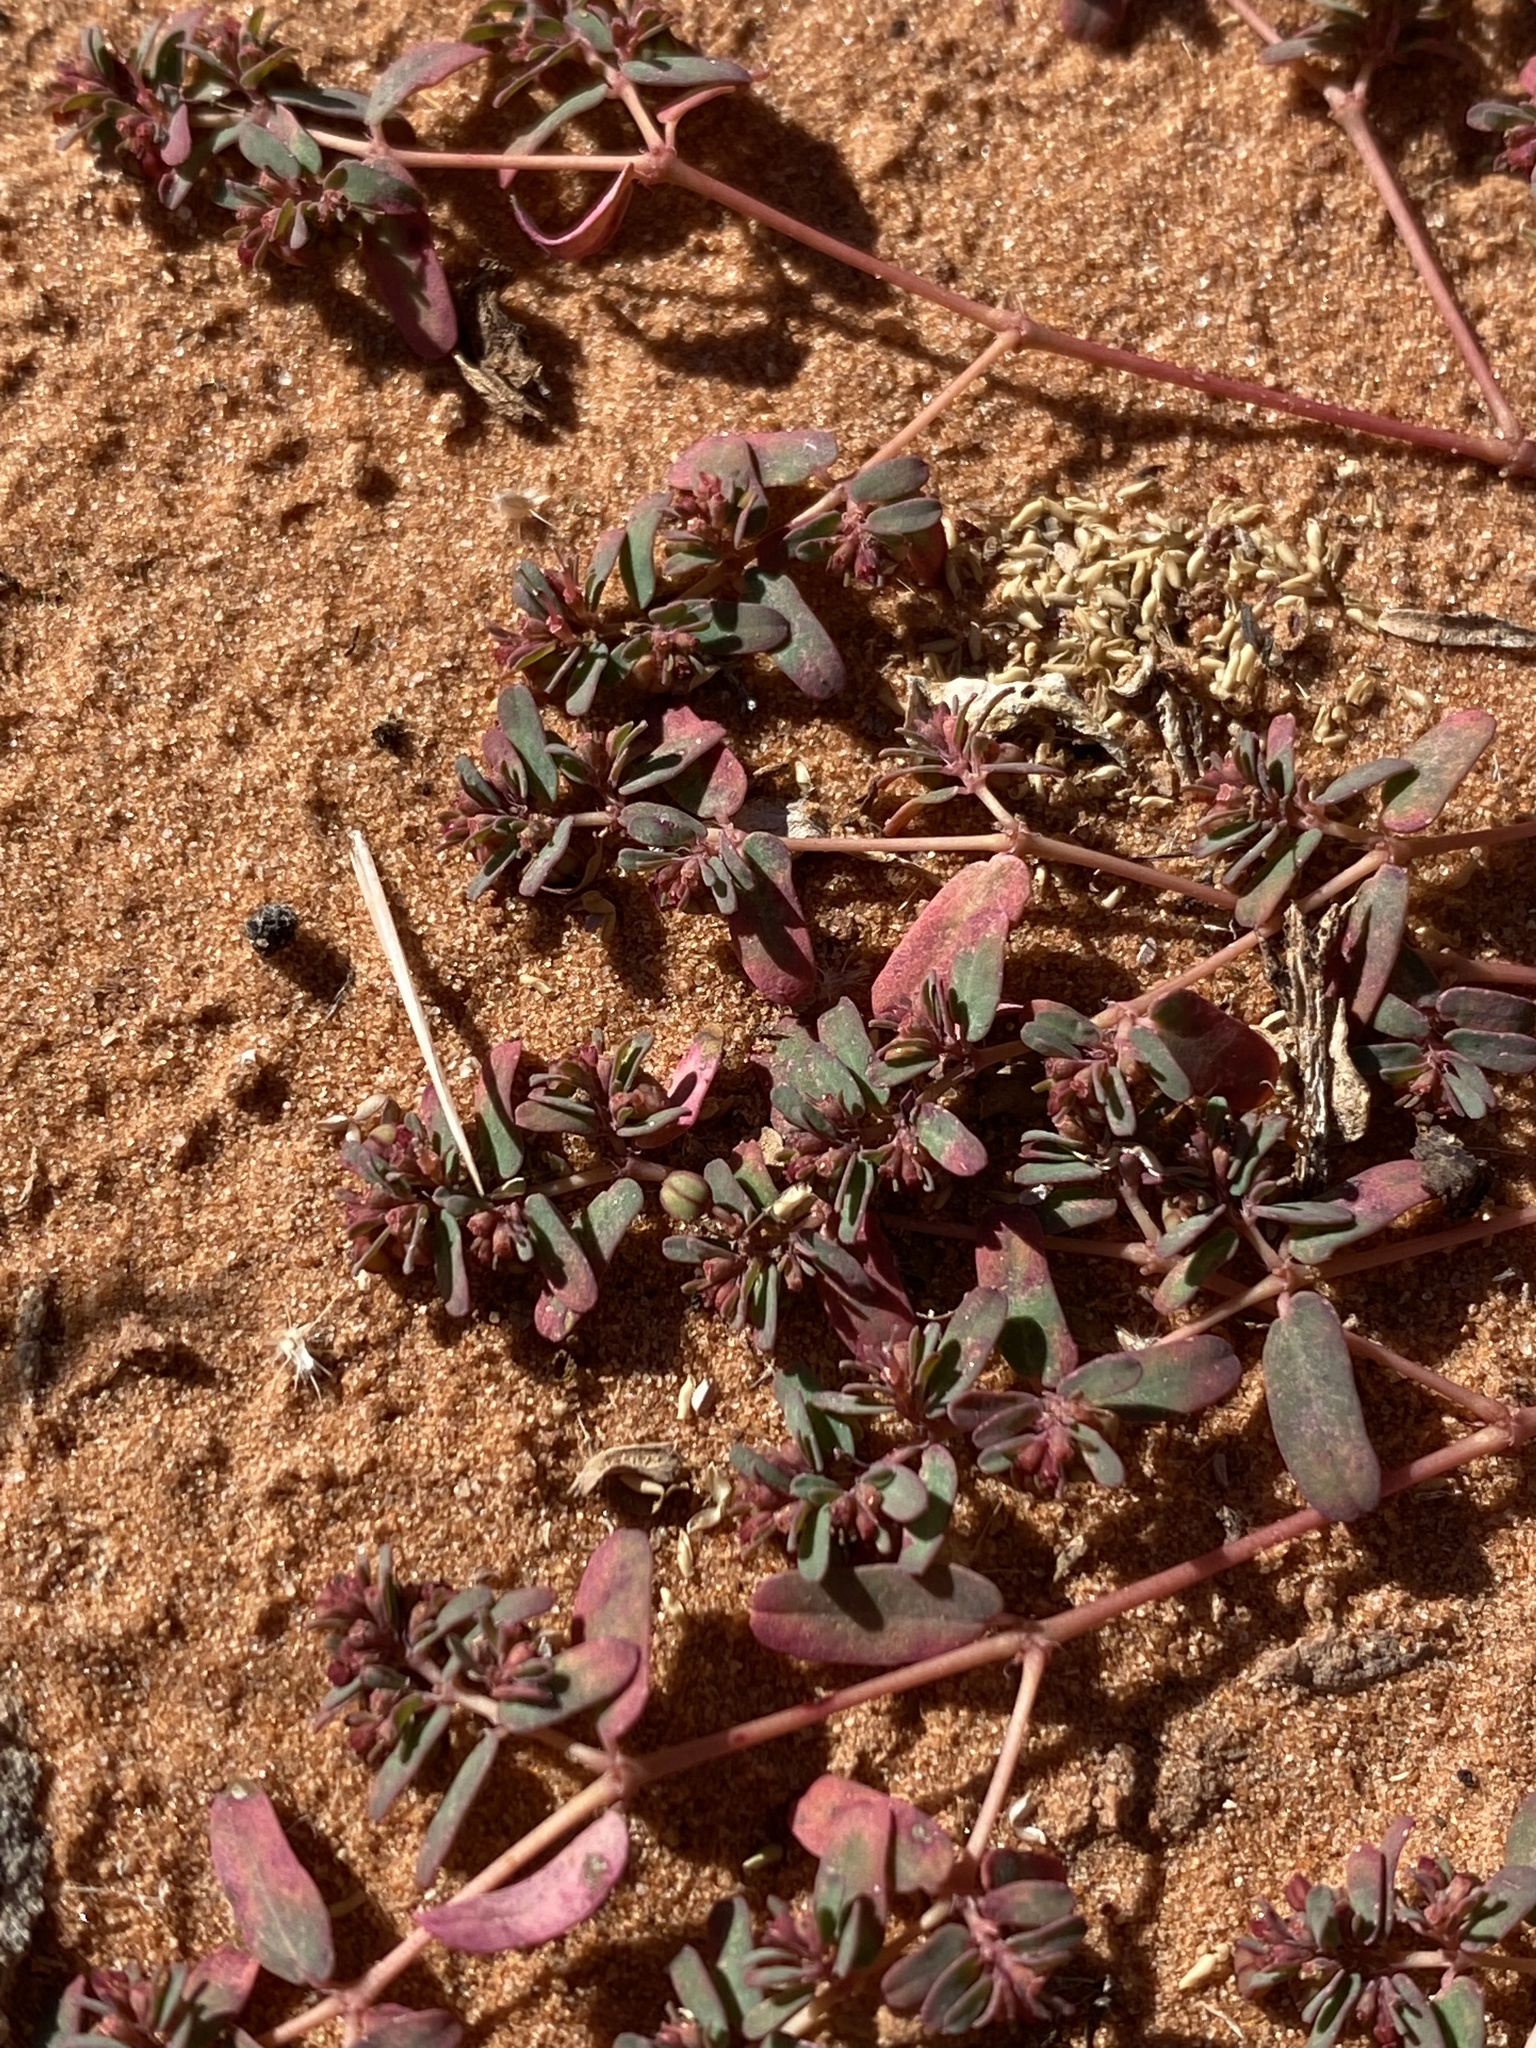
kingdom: Plantae
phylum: Tracheophyta
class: Magnoliopsida
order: Malpighiales
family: Euphorbiaceae
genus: Euphorbia
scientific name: Euphorbia glyptosperma
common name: Corrugate-seeded spurge
